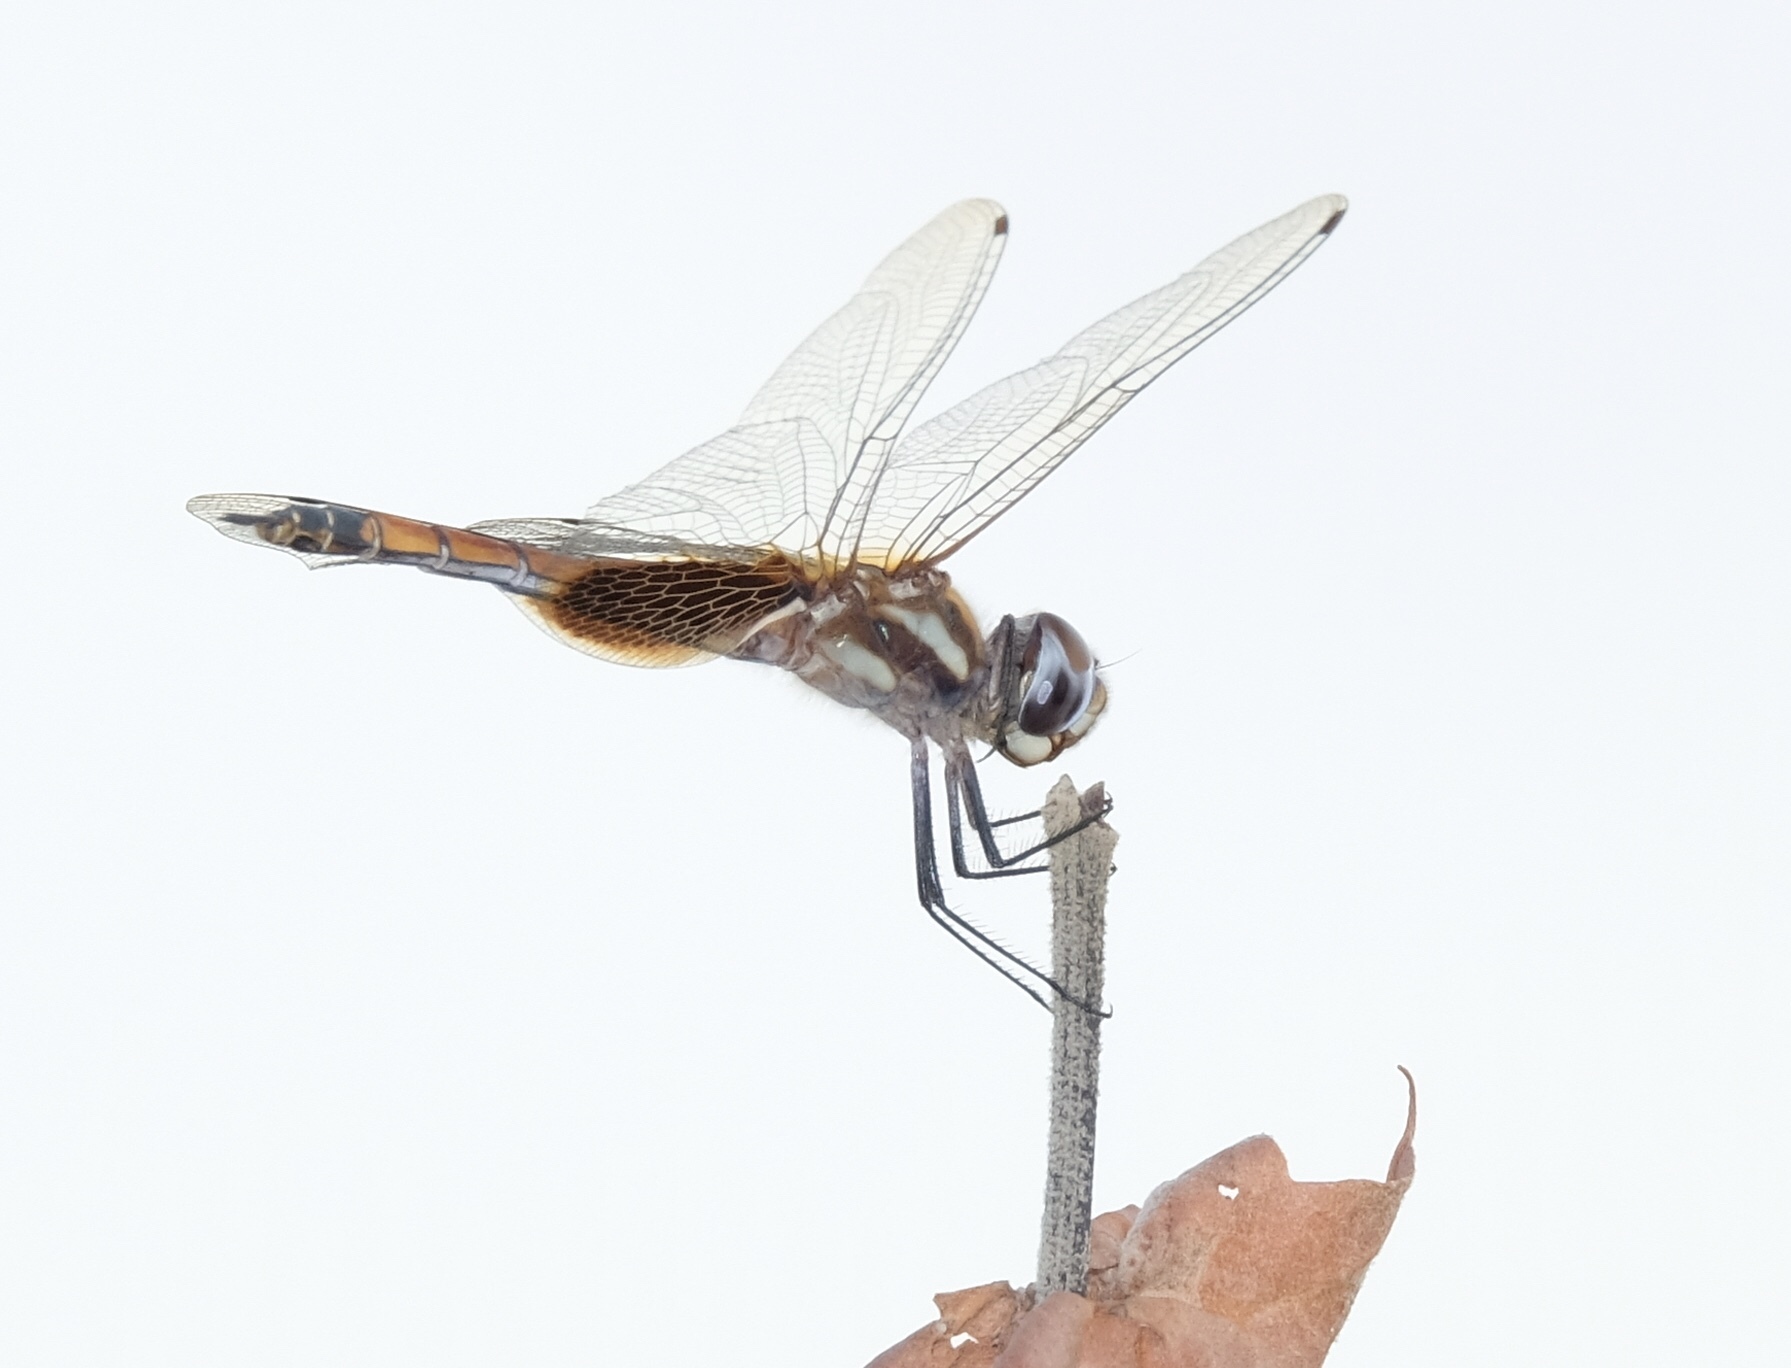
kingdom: Animalia
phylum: Arthropoda
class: Insecta
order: Odonata
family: Libellulidae
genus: Tramea
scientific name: Tramea darwini
